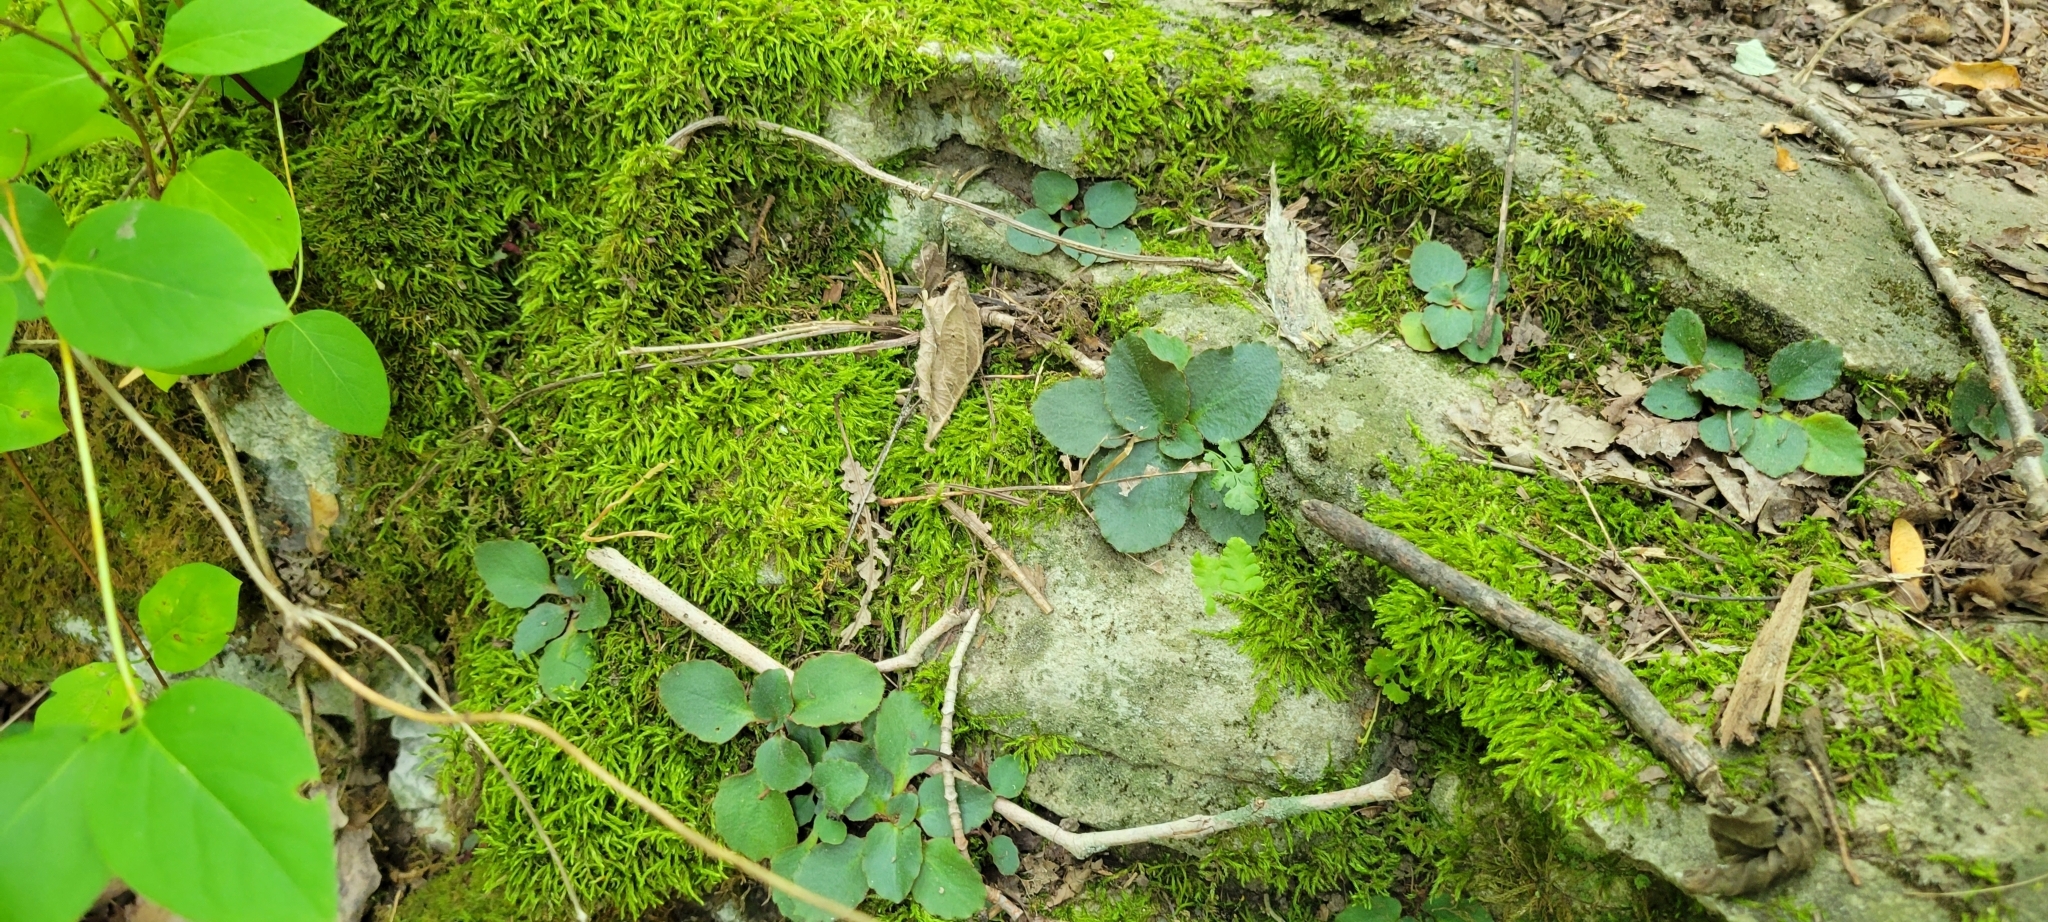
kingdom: Plantae
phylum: Tracheophyta
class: Magnoliopsida
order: Saxifragales
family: Saxifragaceae
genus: Micranthes
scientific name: Micranthes virginiensis
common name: Early saxifrage
